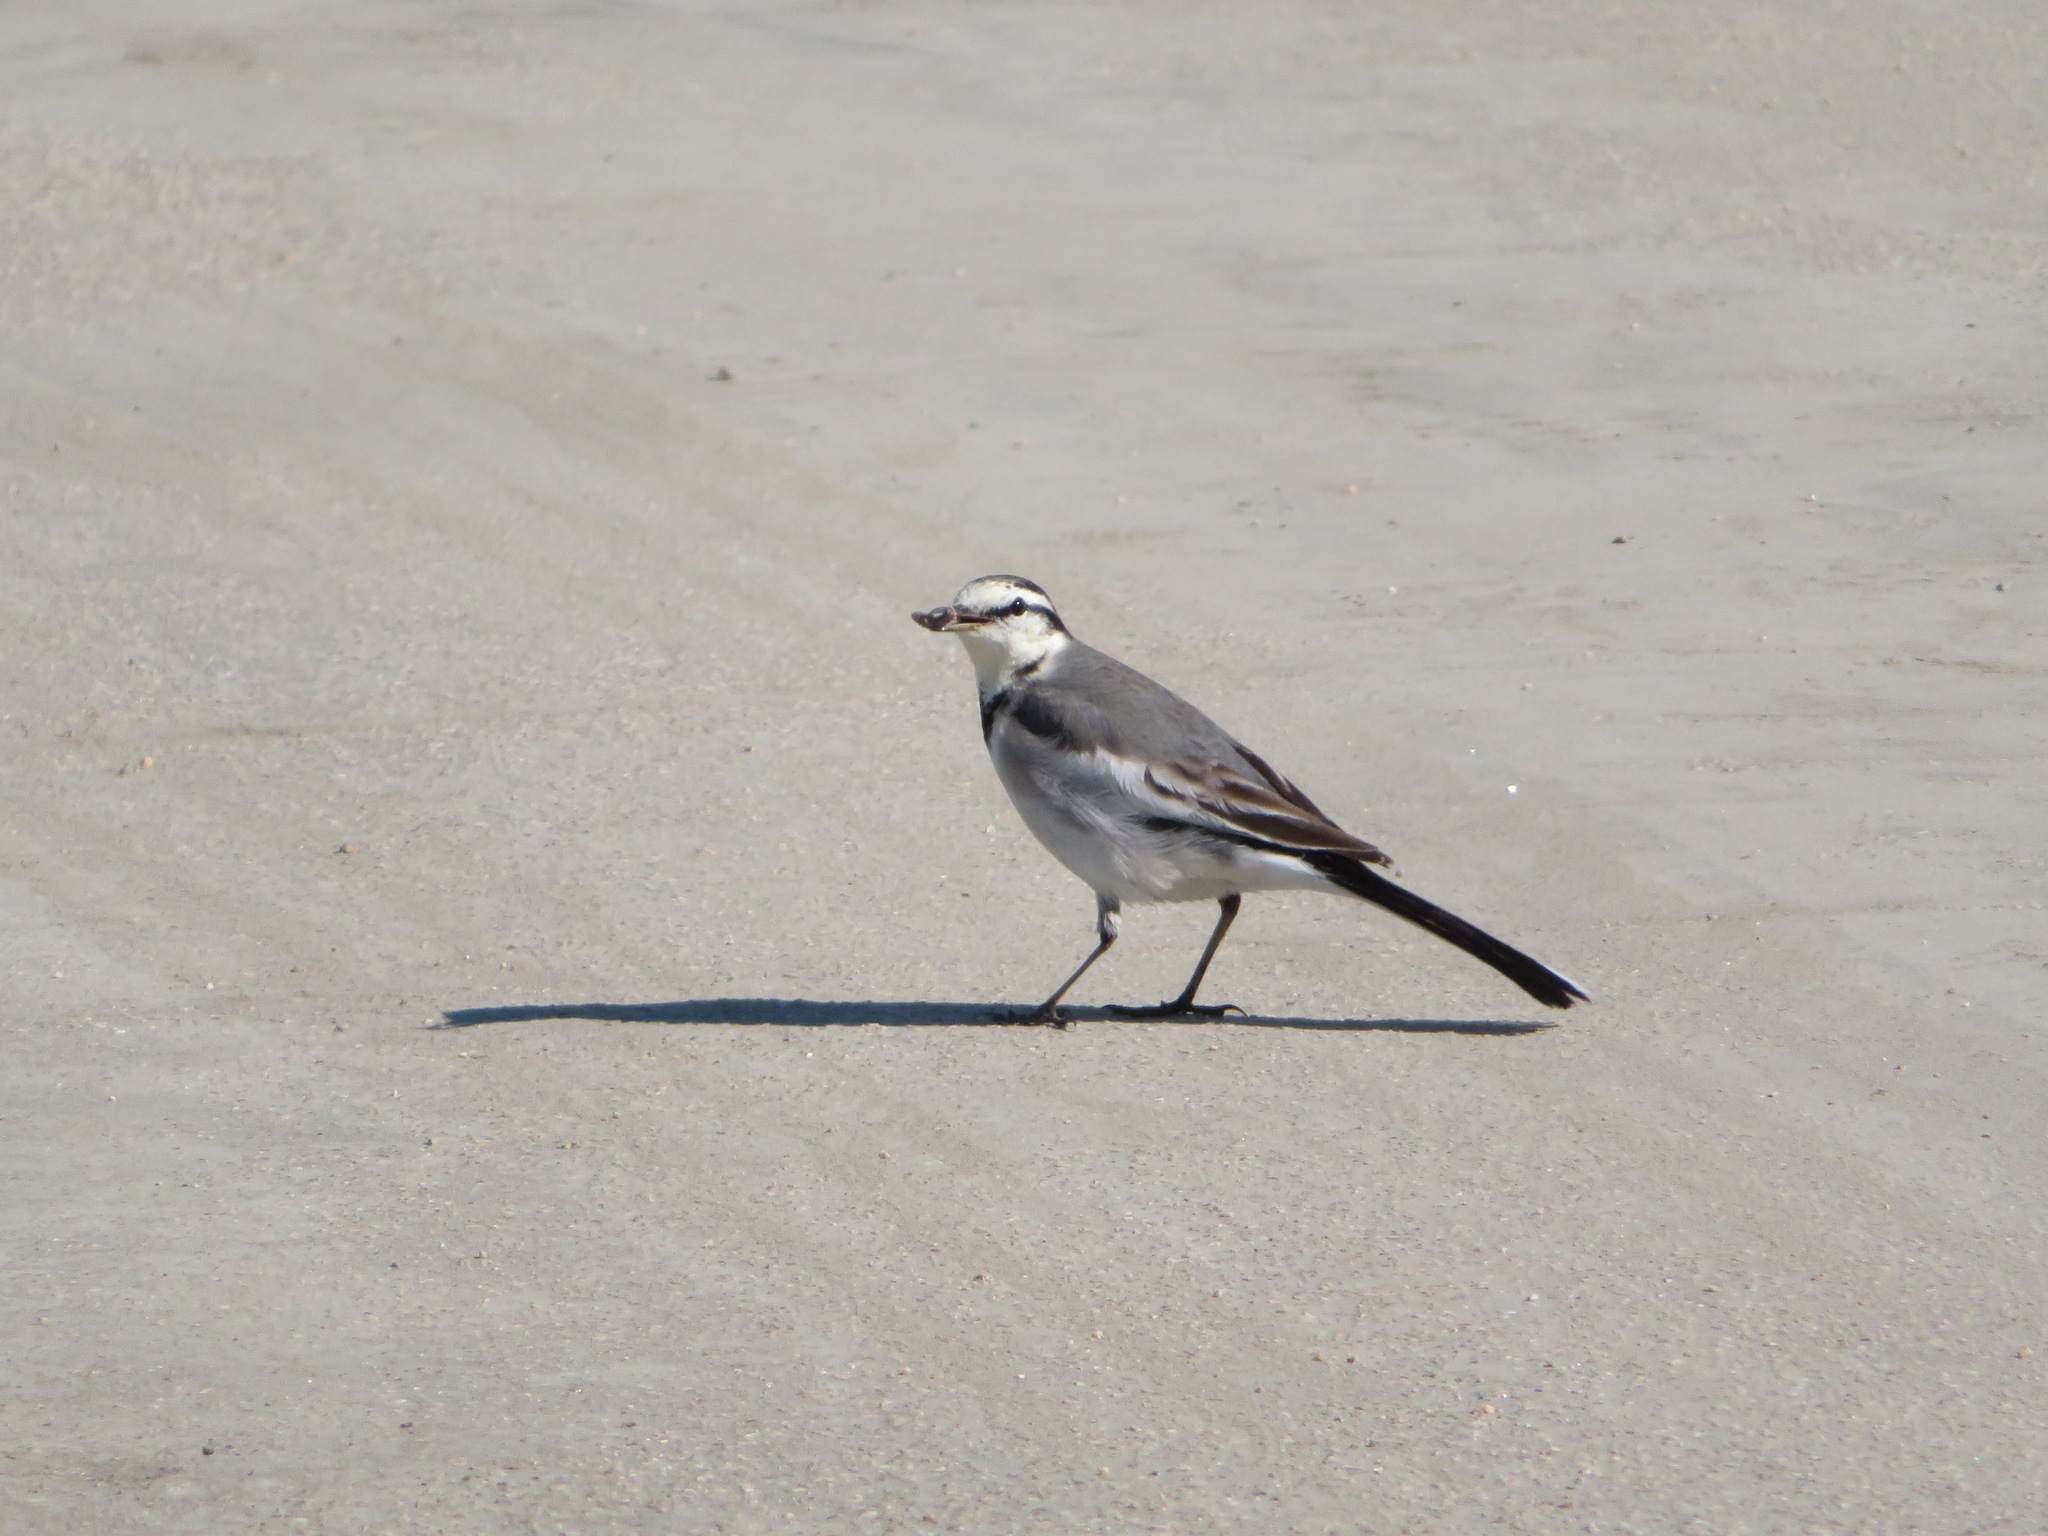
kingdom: Animalia
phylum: Chordata
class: Aves
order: Passeriformes
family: Motacillidae
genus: Motacilla
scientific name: Motacilla alba
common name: White wagtail
